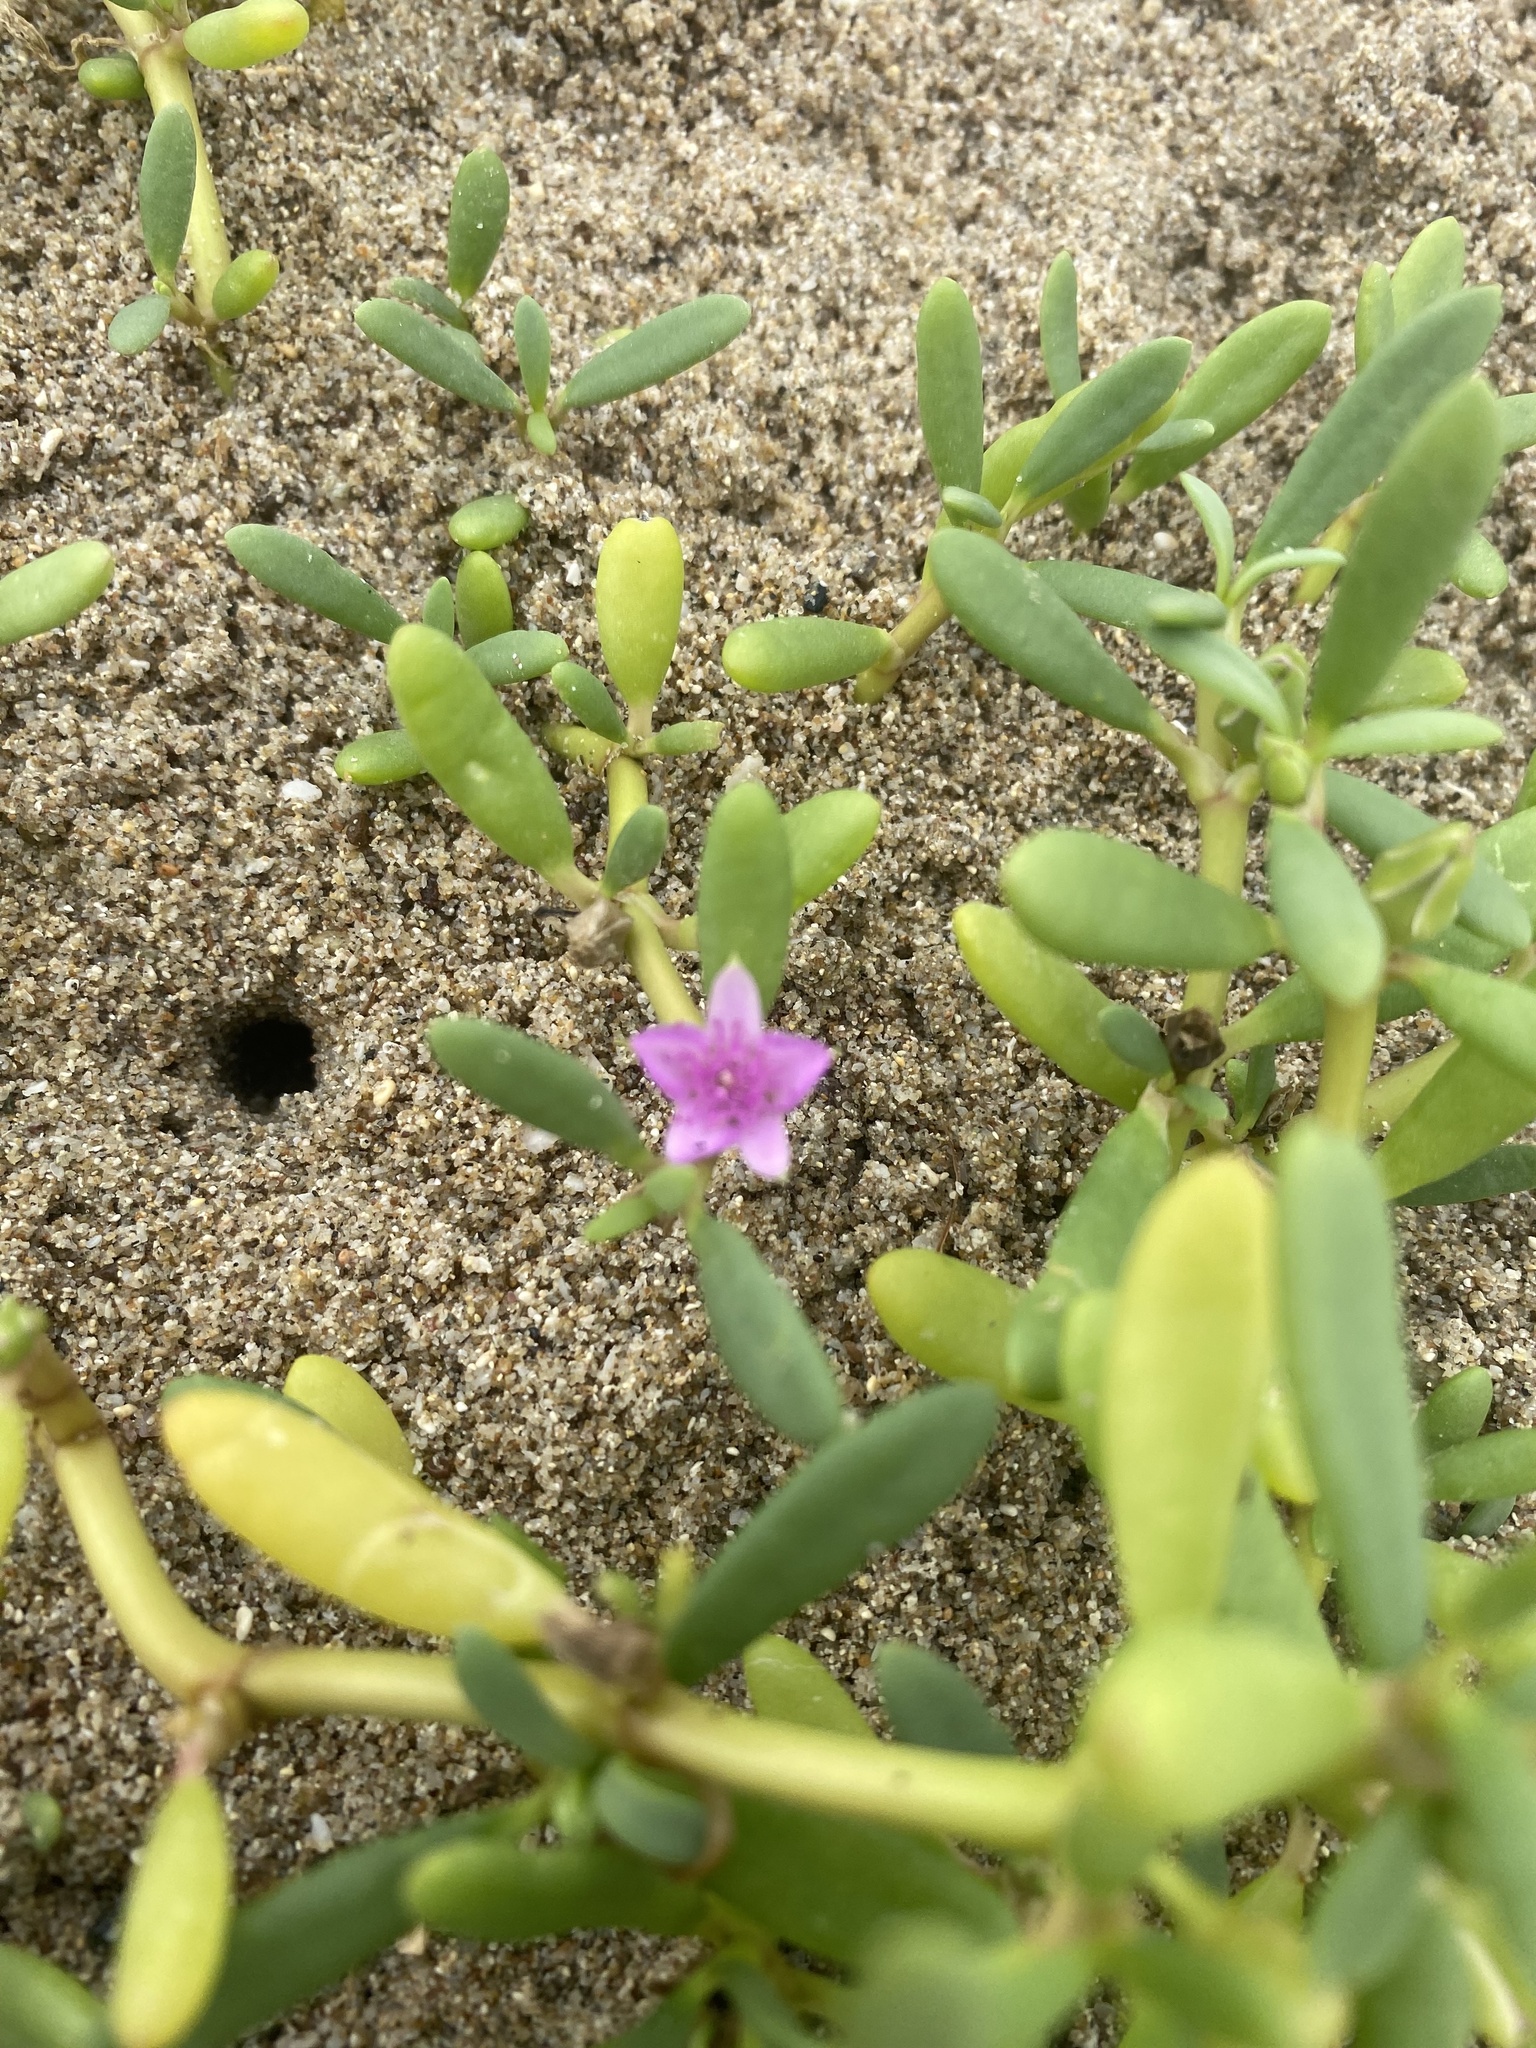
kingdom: Plantae
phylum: Tracheophyta
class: Magnoliopsida
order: Caryophyllales
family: Aizoaceae
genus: Sesuvium
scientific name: Sesuvium portulacastrum
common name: Sea-purslane
